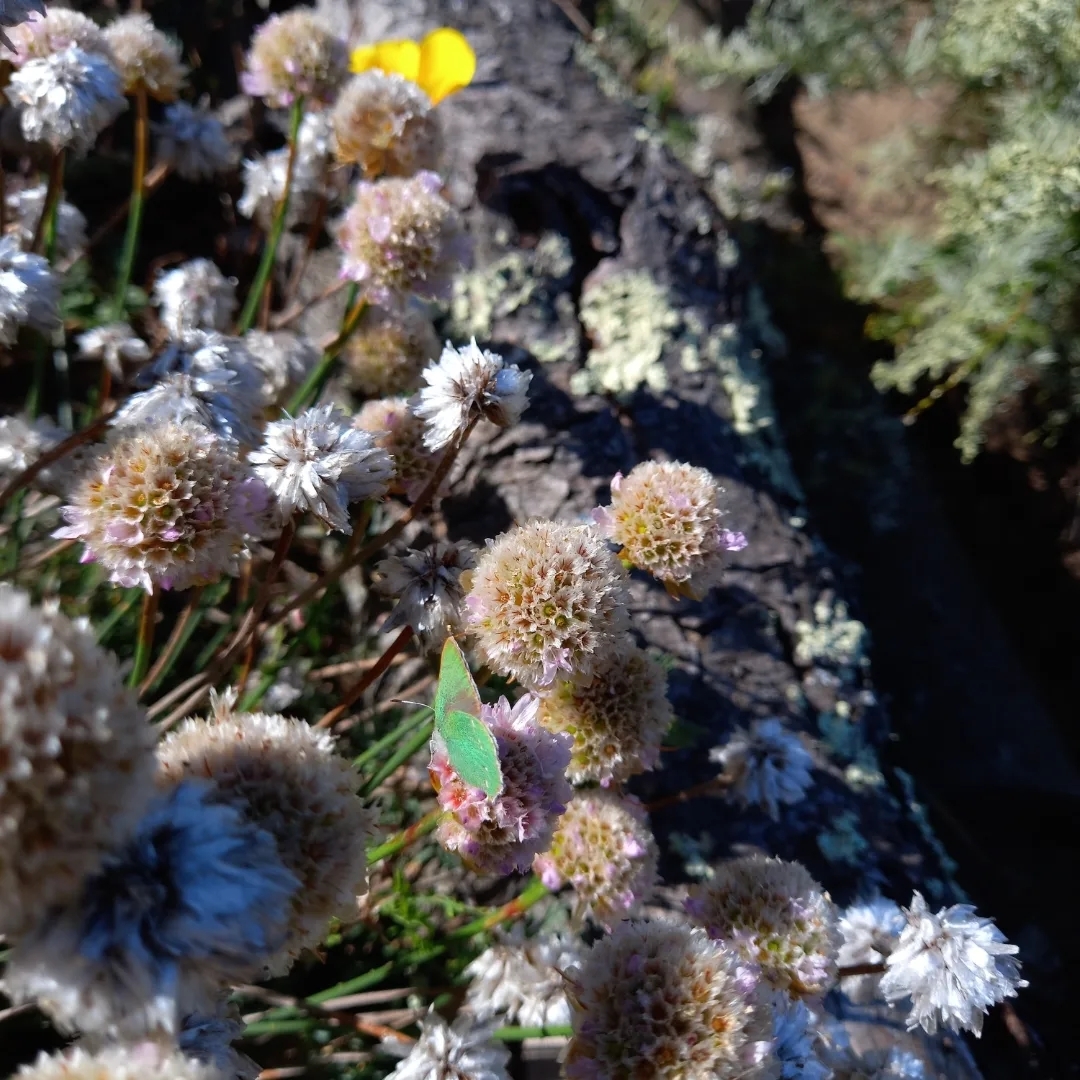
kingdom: Animalia
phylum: Arthropoda
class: Insecta
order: Lepidoptera
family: Lycaenidae
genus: Callophrys
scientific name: Callophrys viridis
